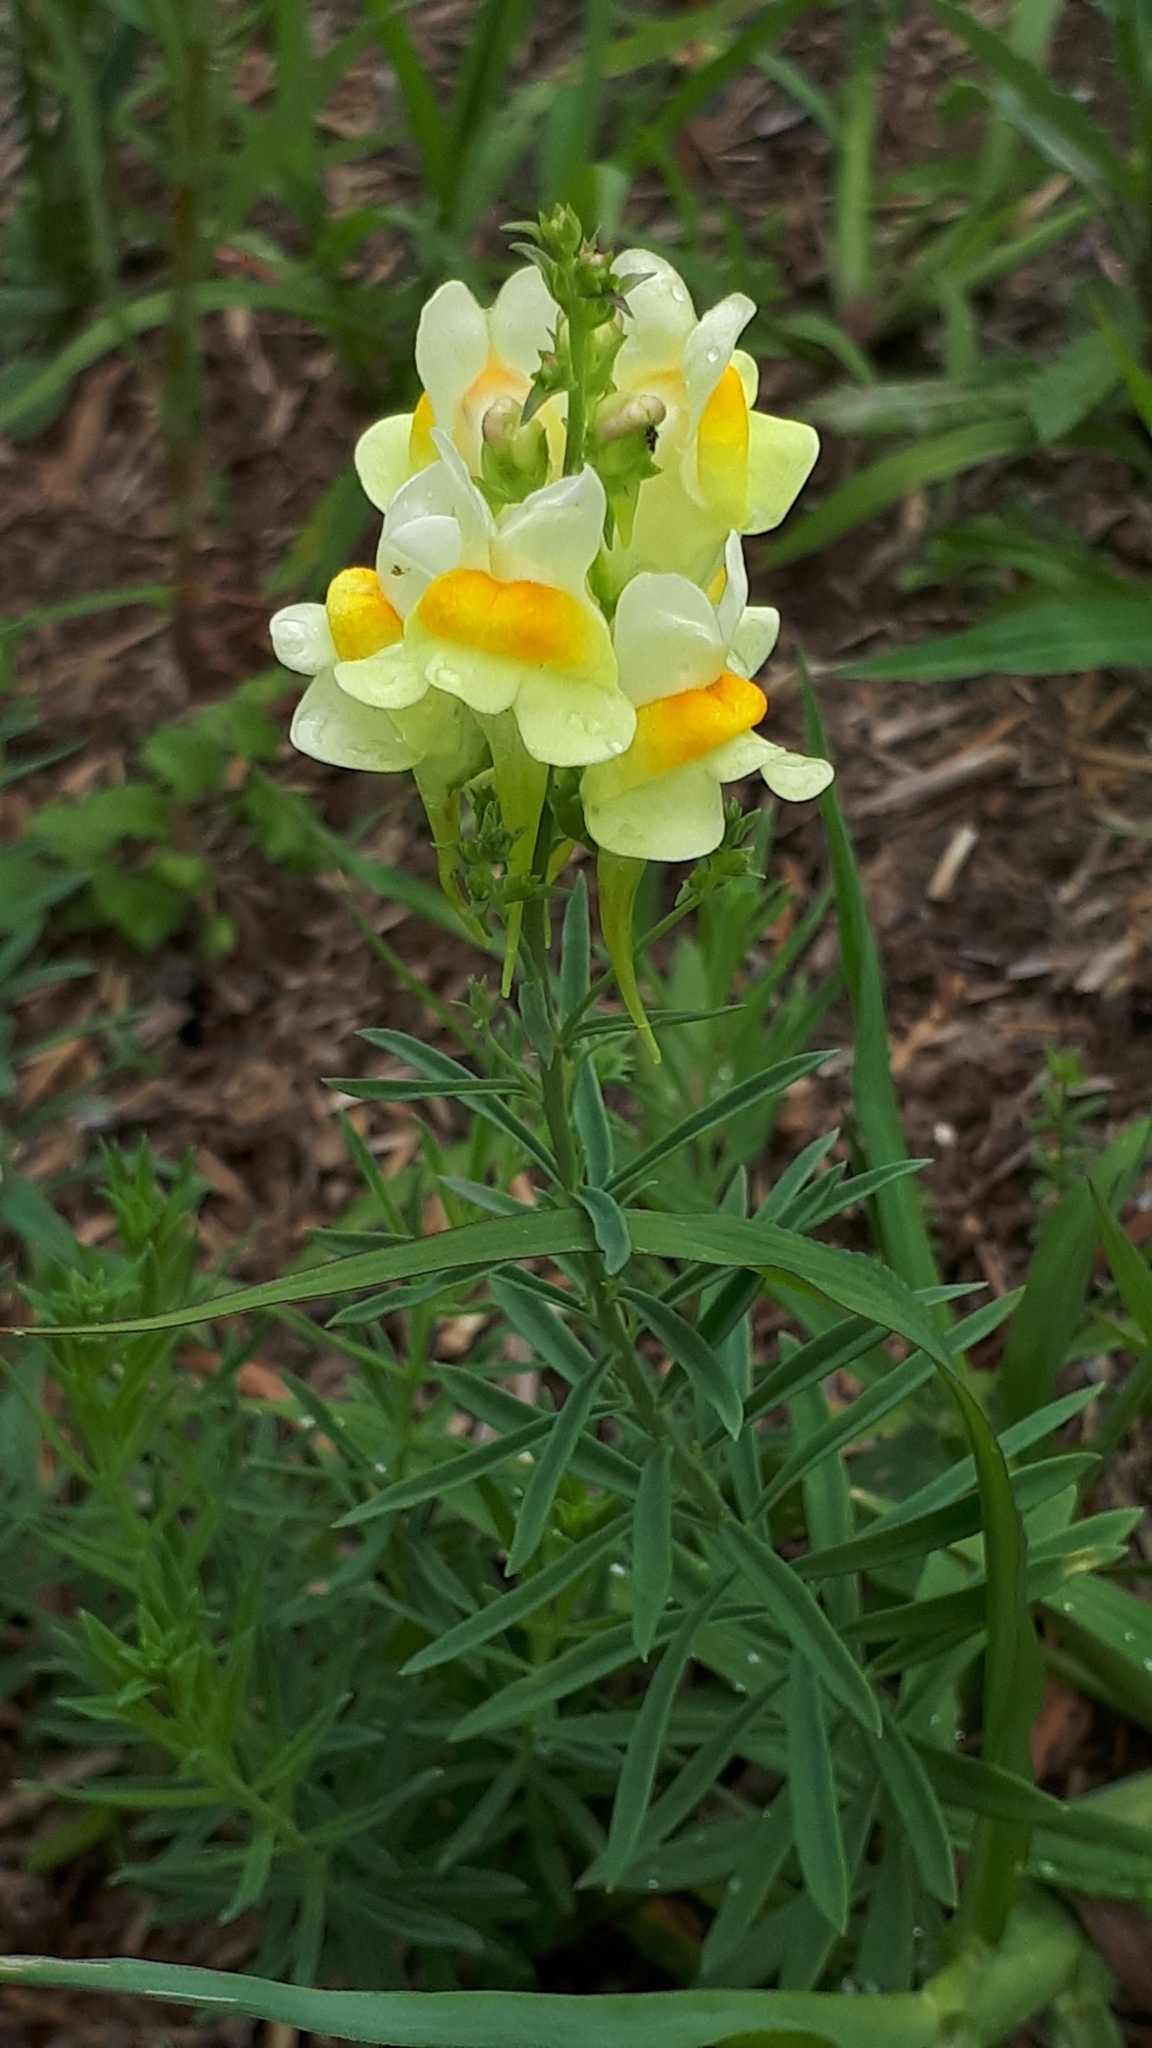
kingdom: Plantae
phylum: Tracheophyta
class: Magnoliopsida
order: Lamiales
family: Plantaginaceae
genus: Linaria
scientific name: Linaria vulgaris
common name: Butter and eggs
